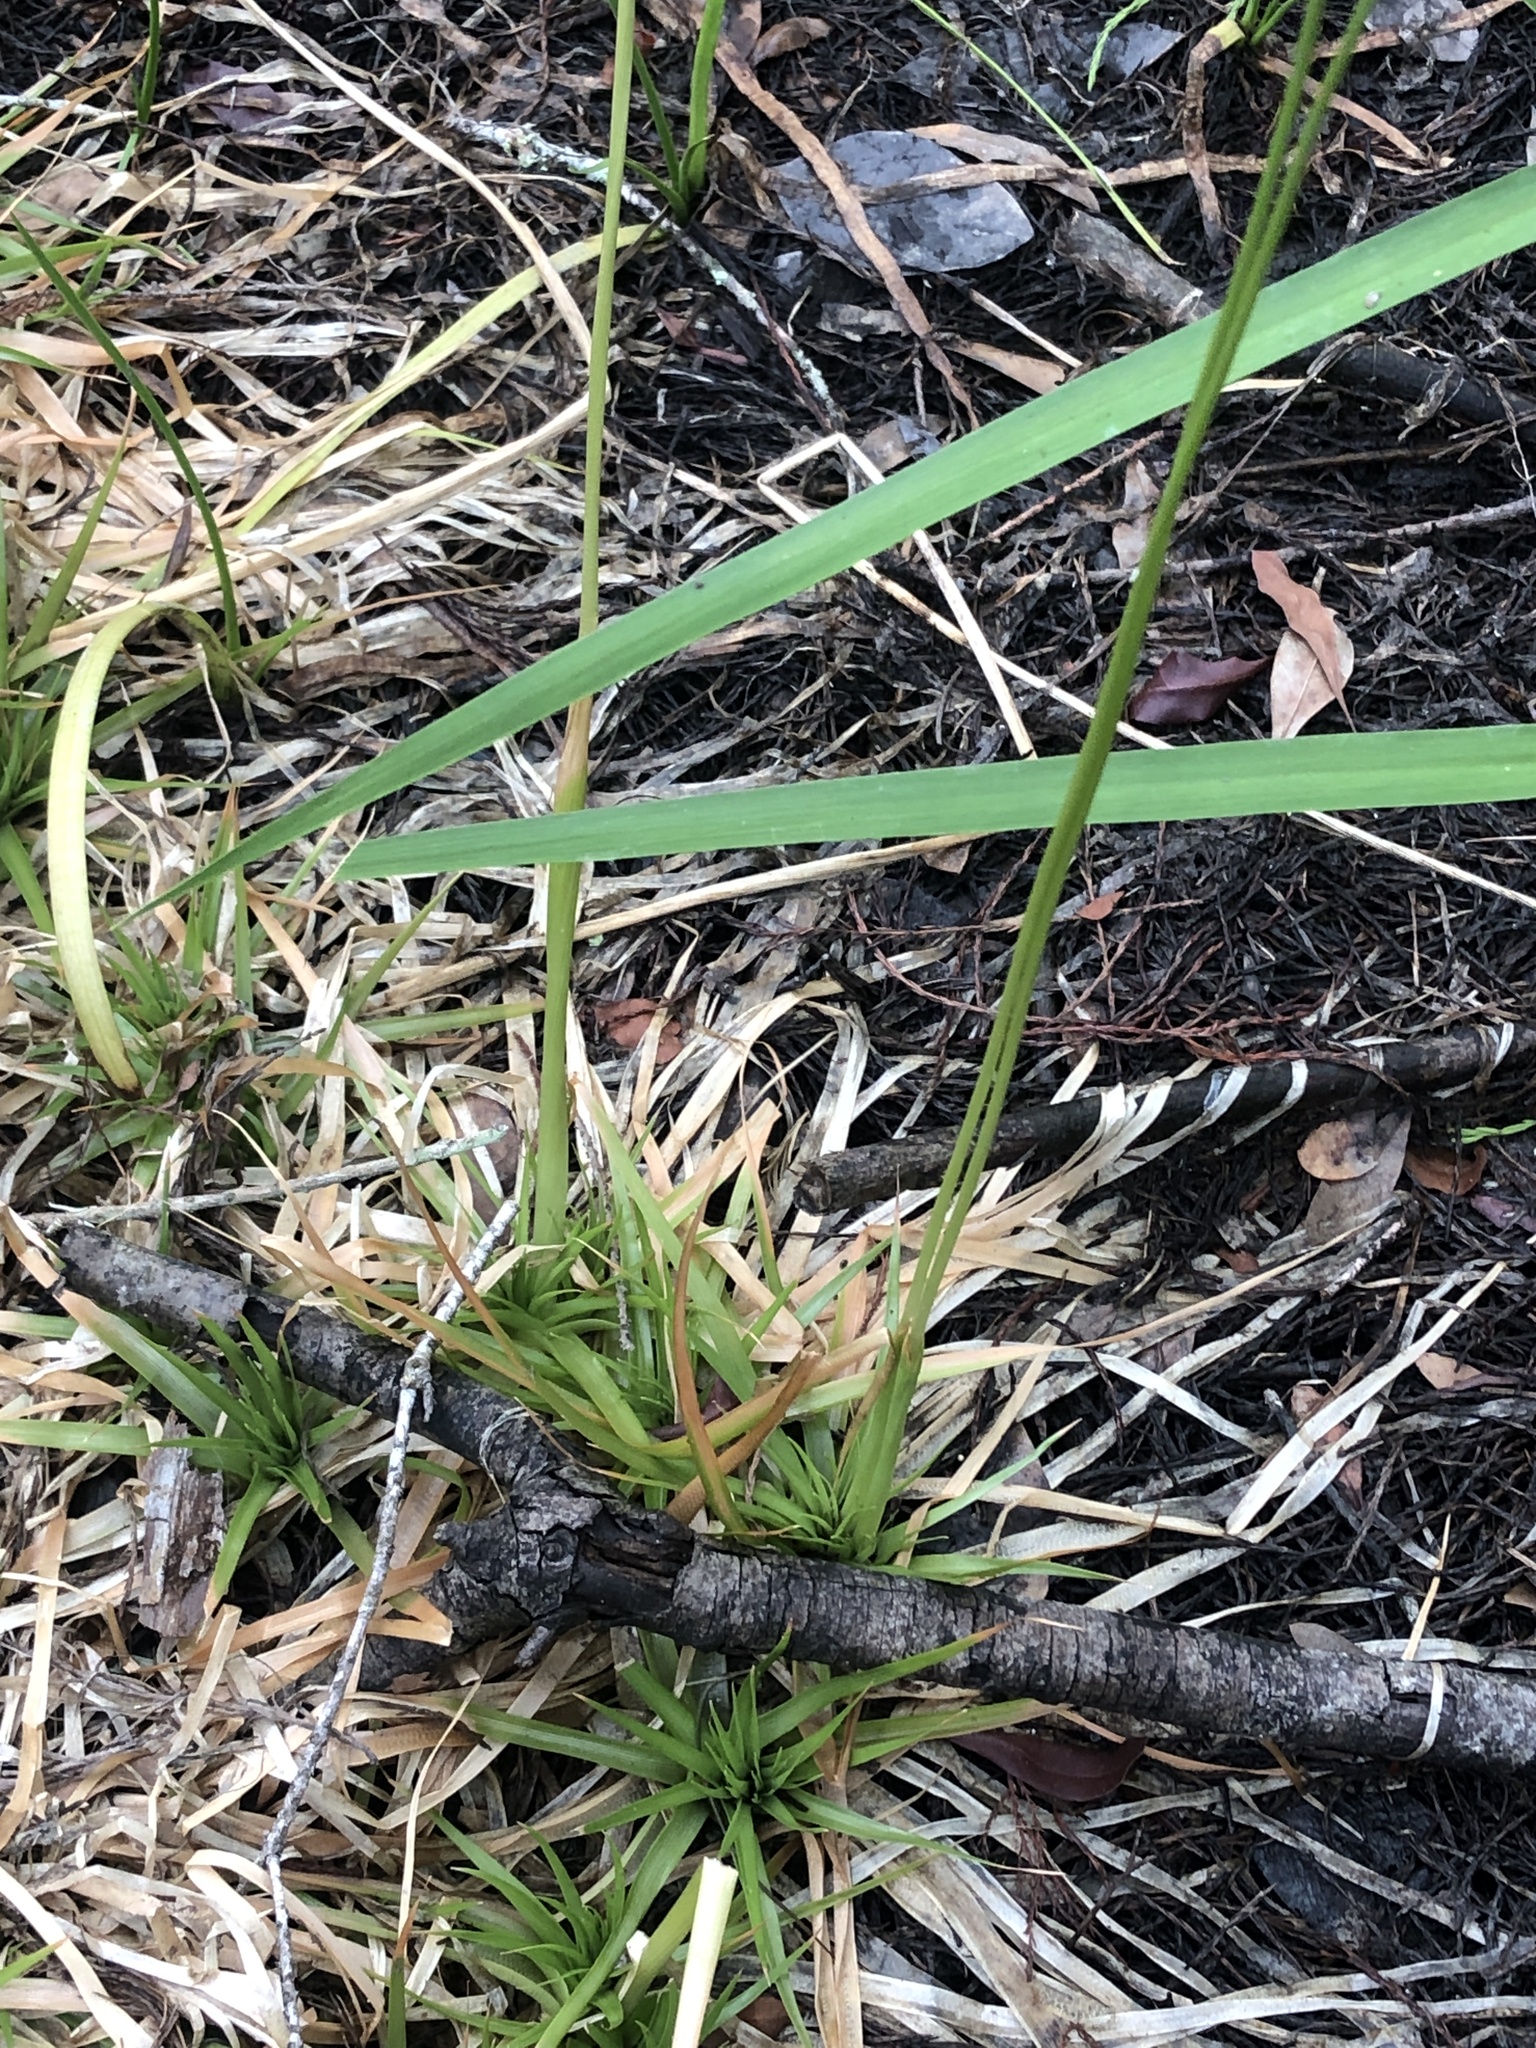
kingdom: Plantae
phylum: Tracheophyta
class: Liliopsida
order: Poales
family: Eriocaulaceae
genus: Eriocaulon
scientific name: Eriocaulon compressum
